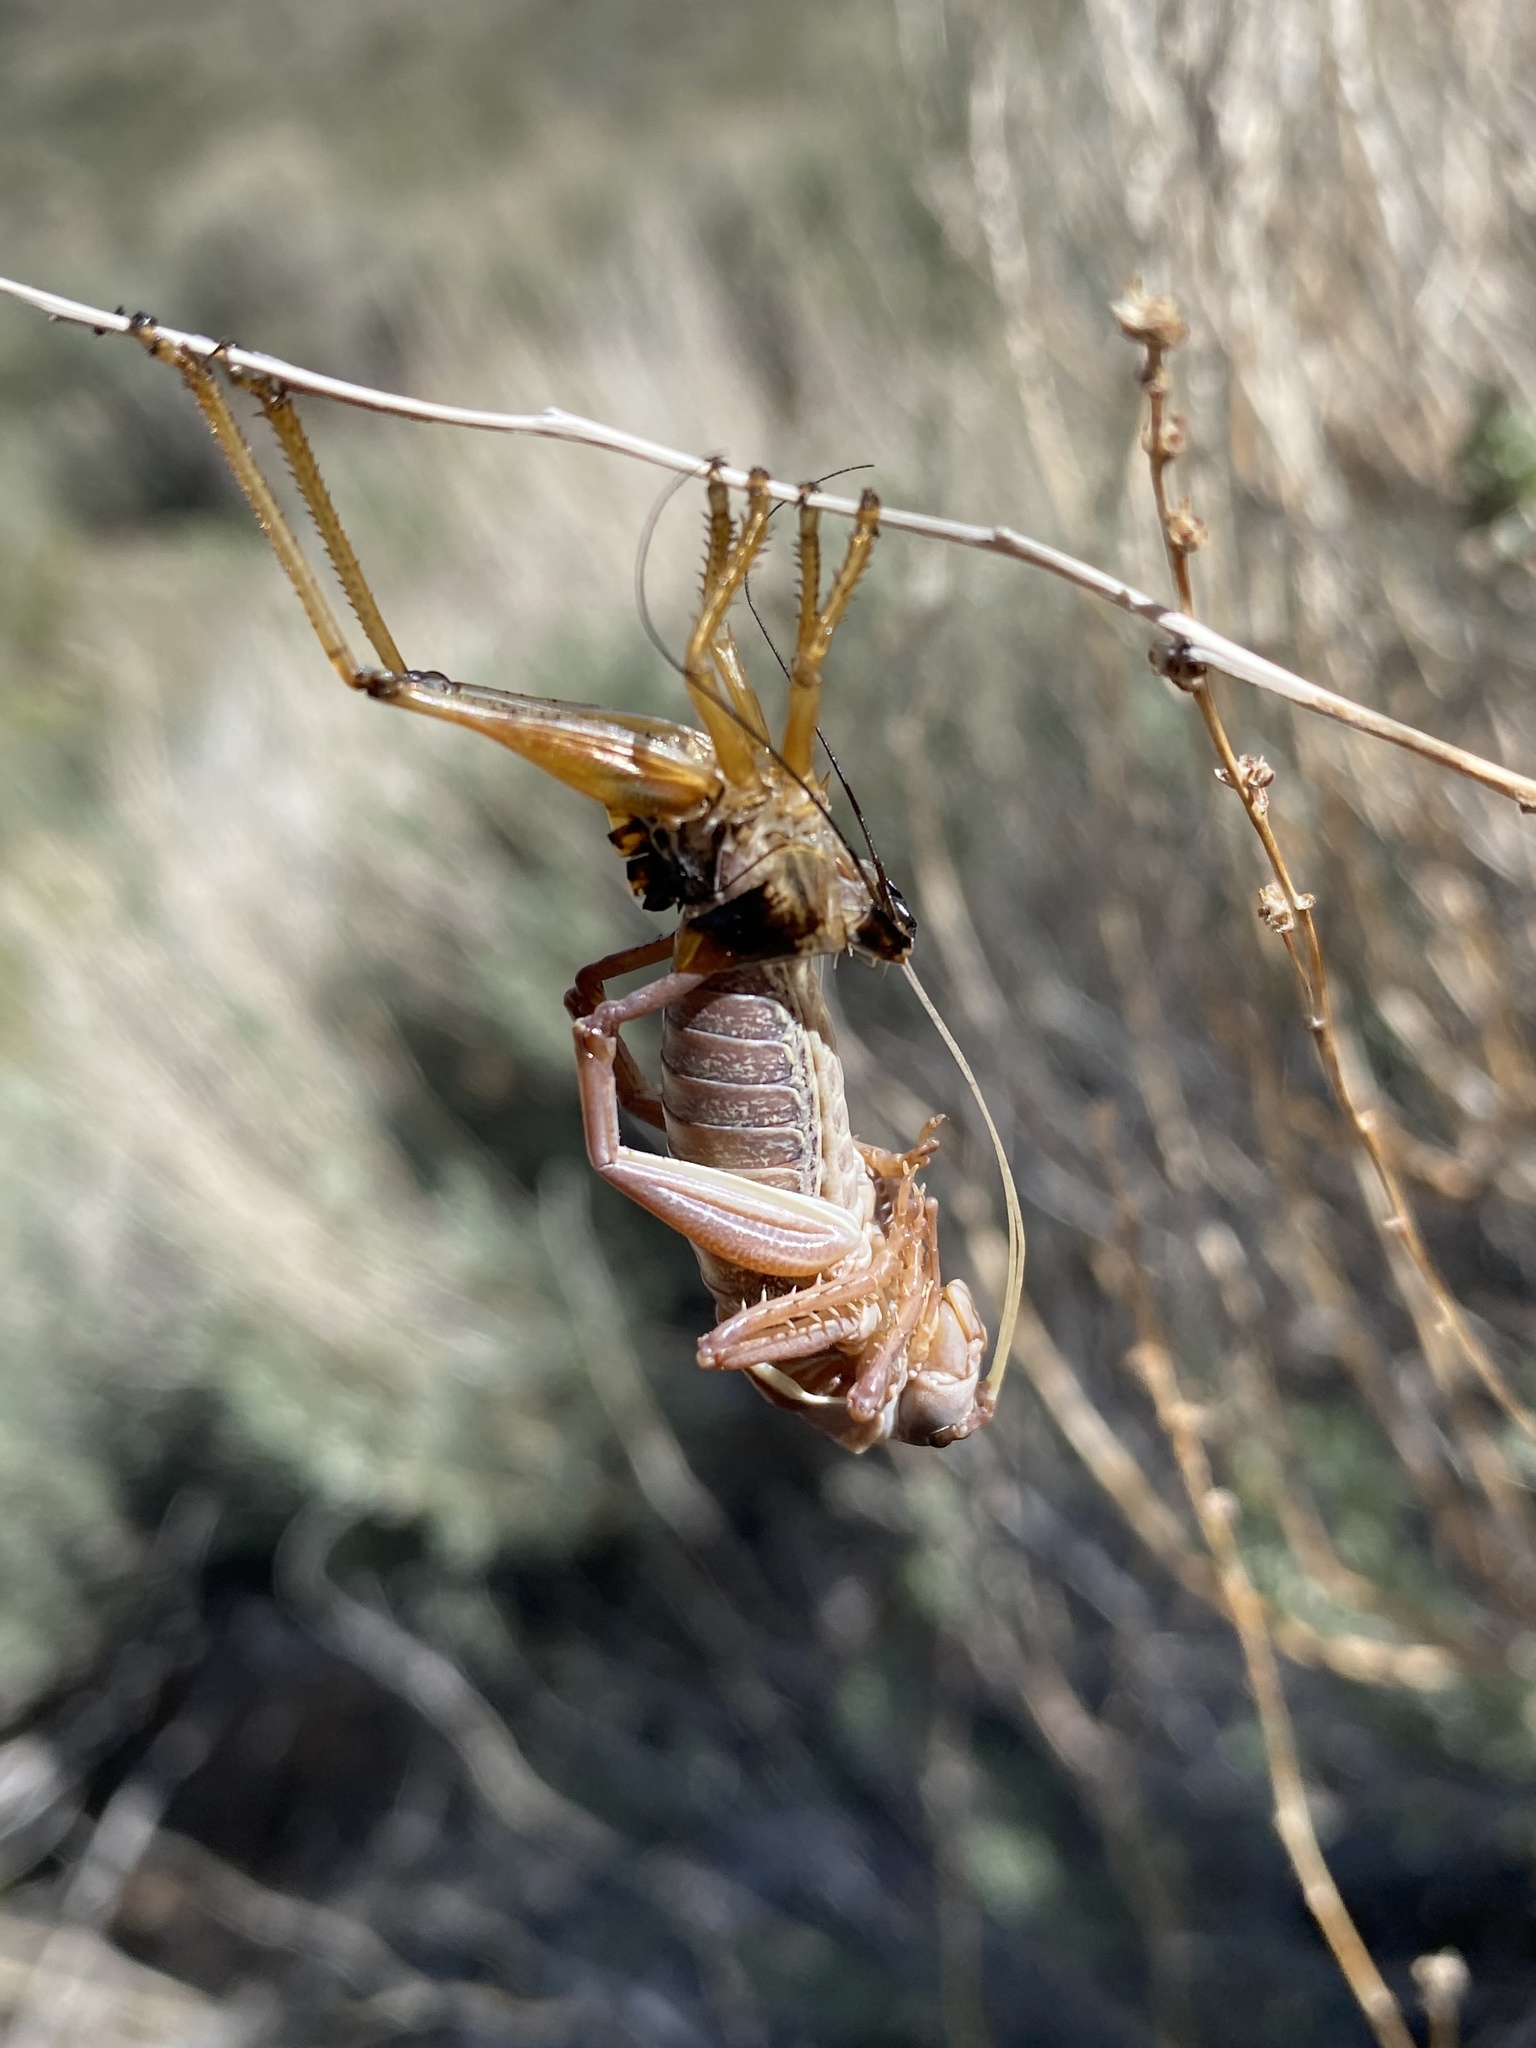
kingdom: Animalia
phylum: Arthropoda
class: Insecta
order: Orthoptera
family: Tettigoniidae
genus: Anabrus
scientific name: Anabrus simplex
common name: Mormon cricket
